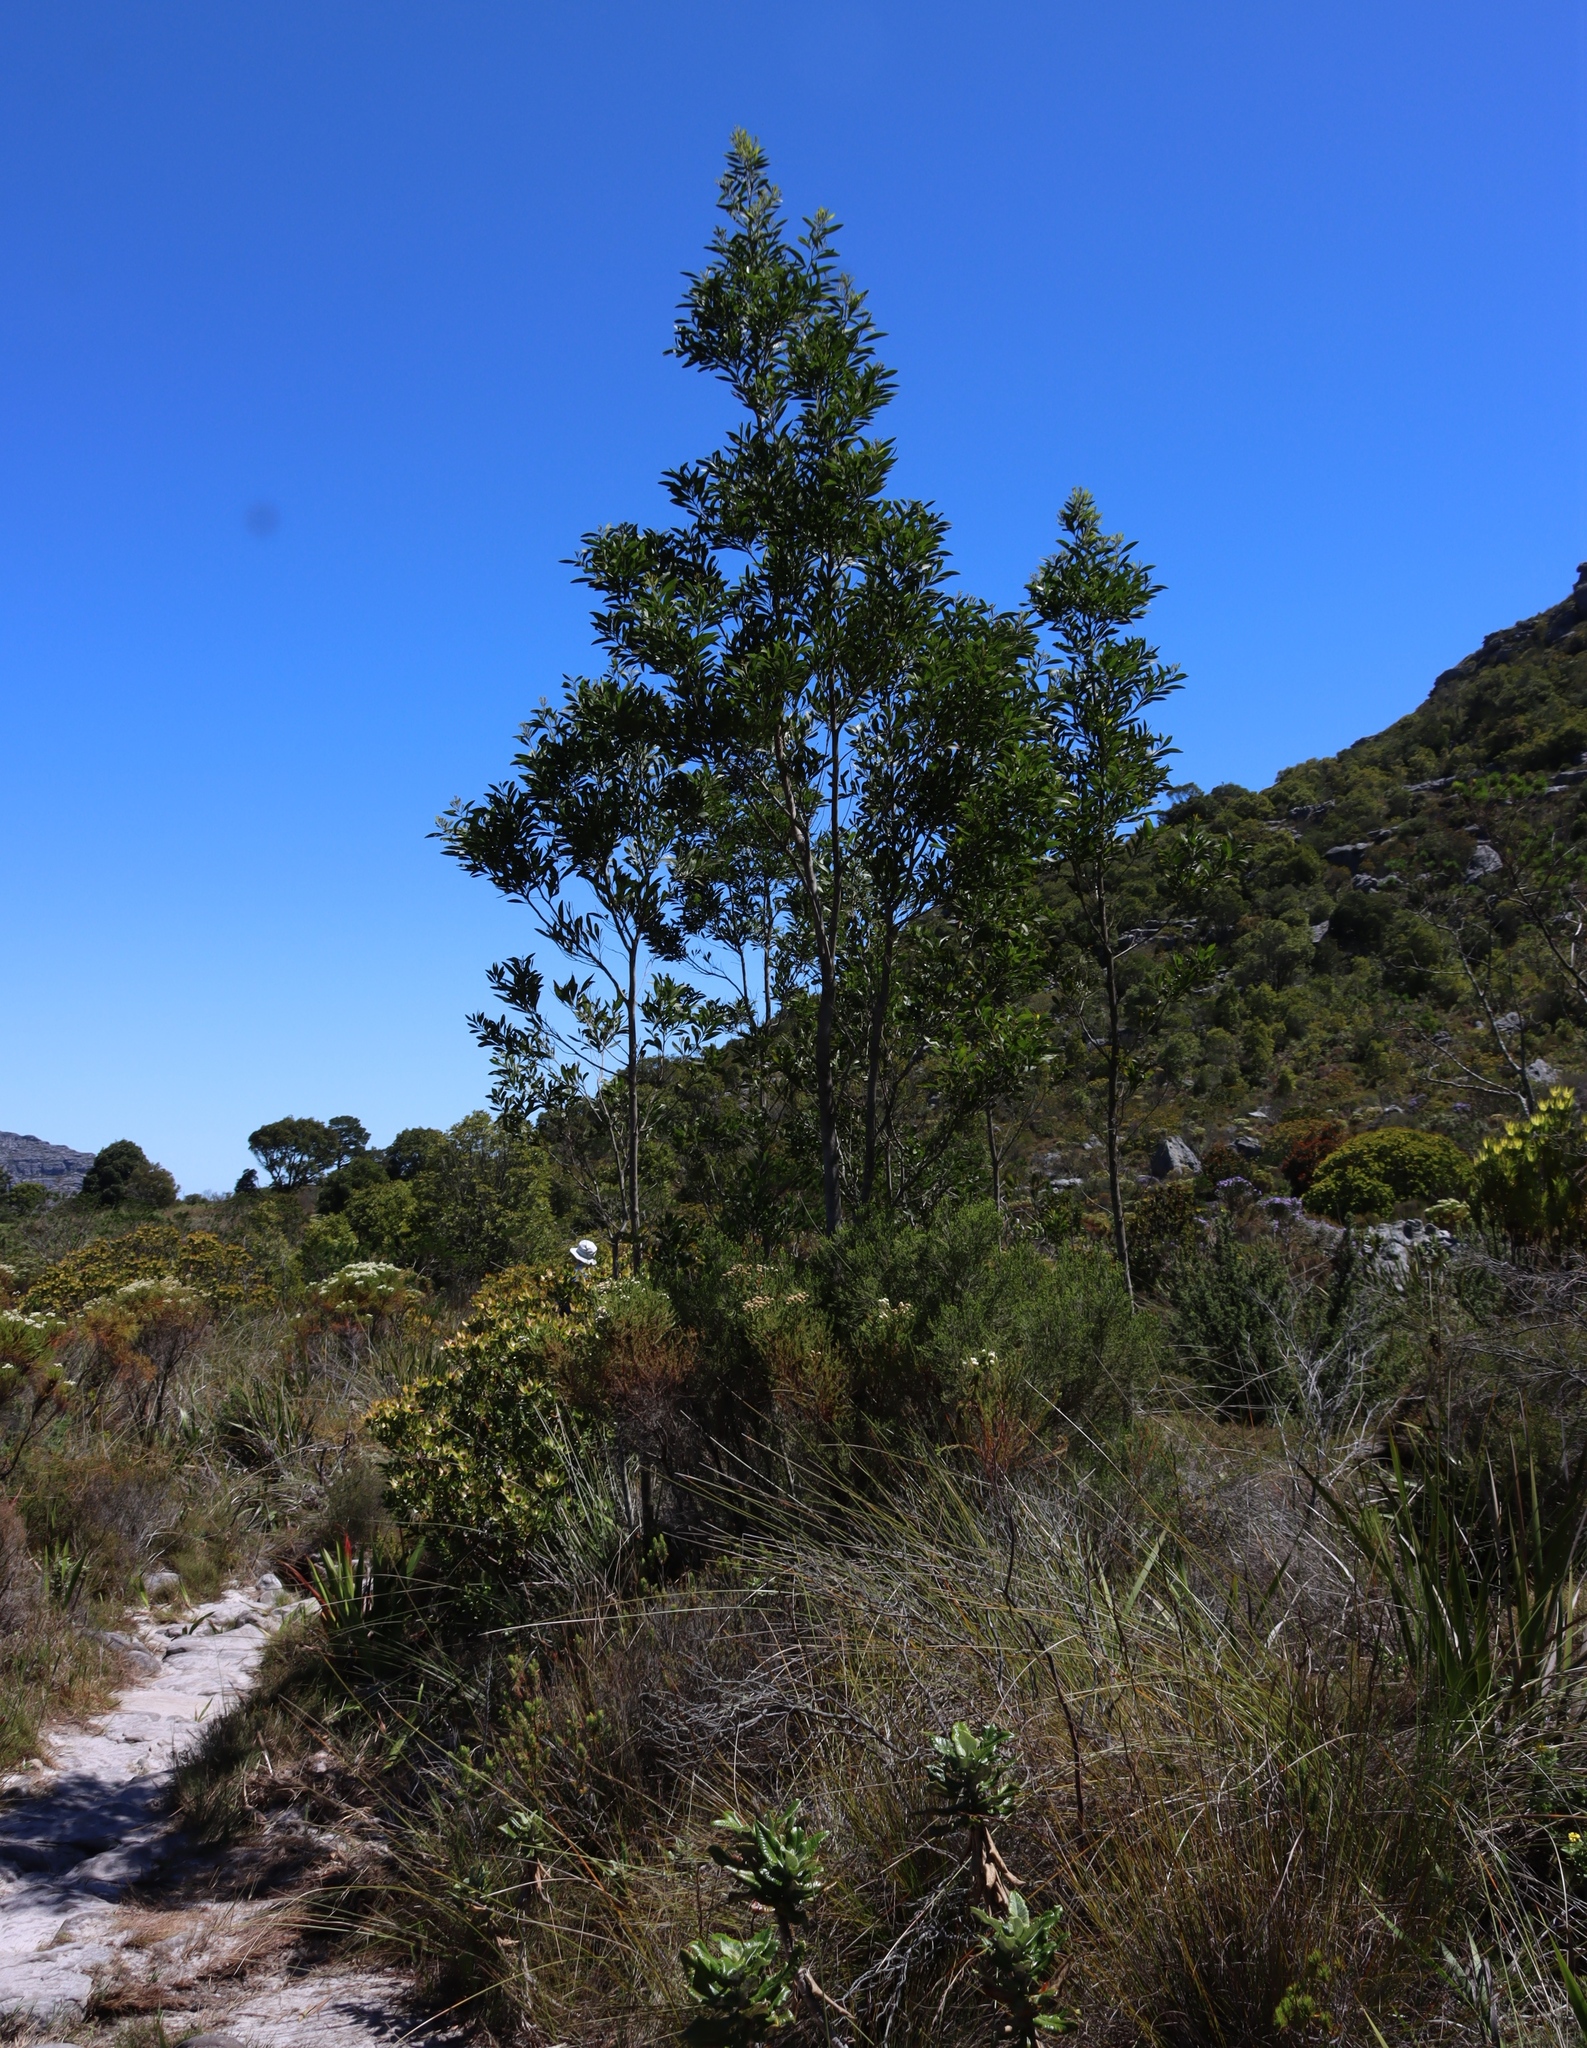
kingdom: Plantae
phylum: Tracheophyta
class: Magnoliopsida
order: Fabales
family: Fabaceae
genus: Acacia
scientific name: Acacia melanoxylon
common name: Blackwood
